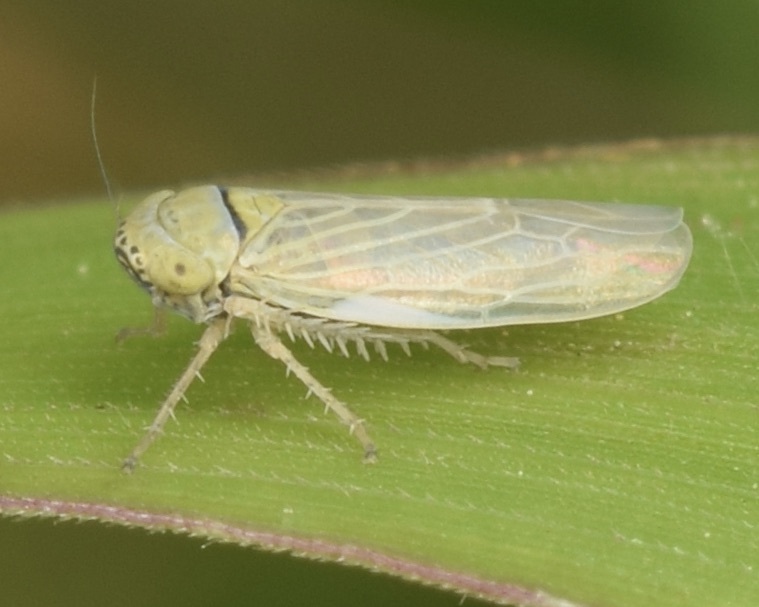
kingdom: Animalia
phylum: Arthropoda
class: Insecta
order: Hemiptera
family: Cicadellidae
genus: Graminella
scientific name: Graminella nigrifrons
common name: Blackfaced leafhopper
